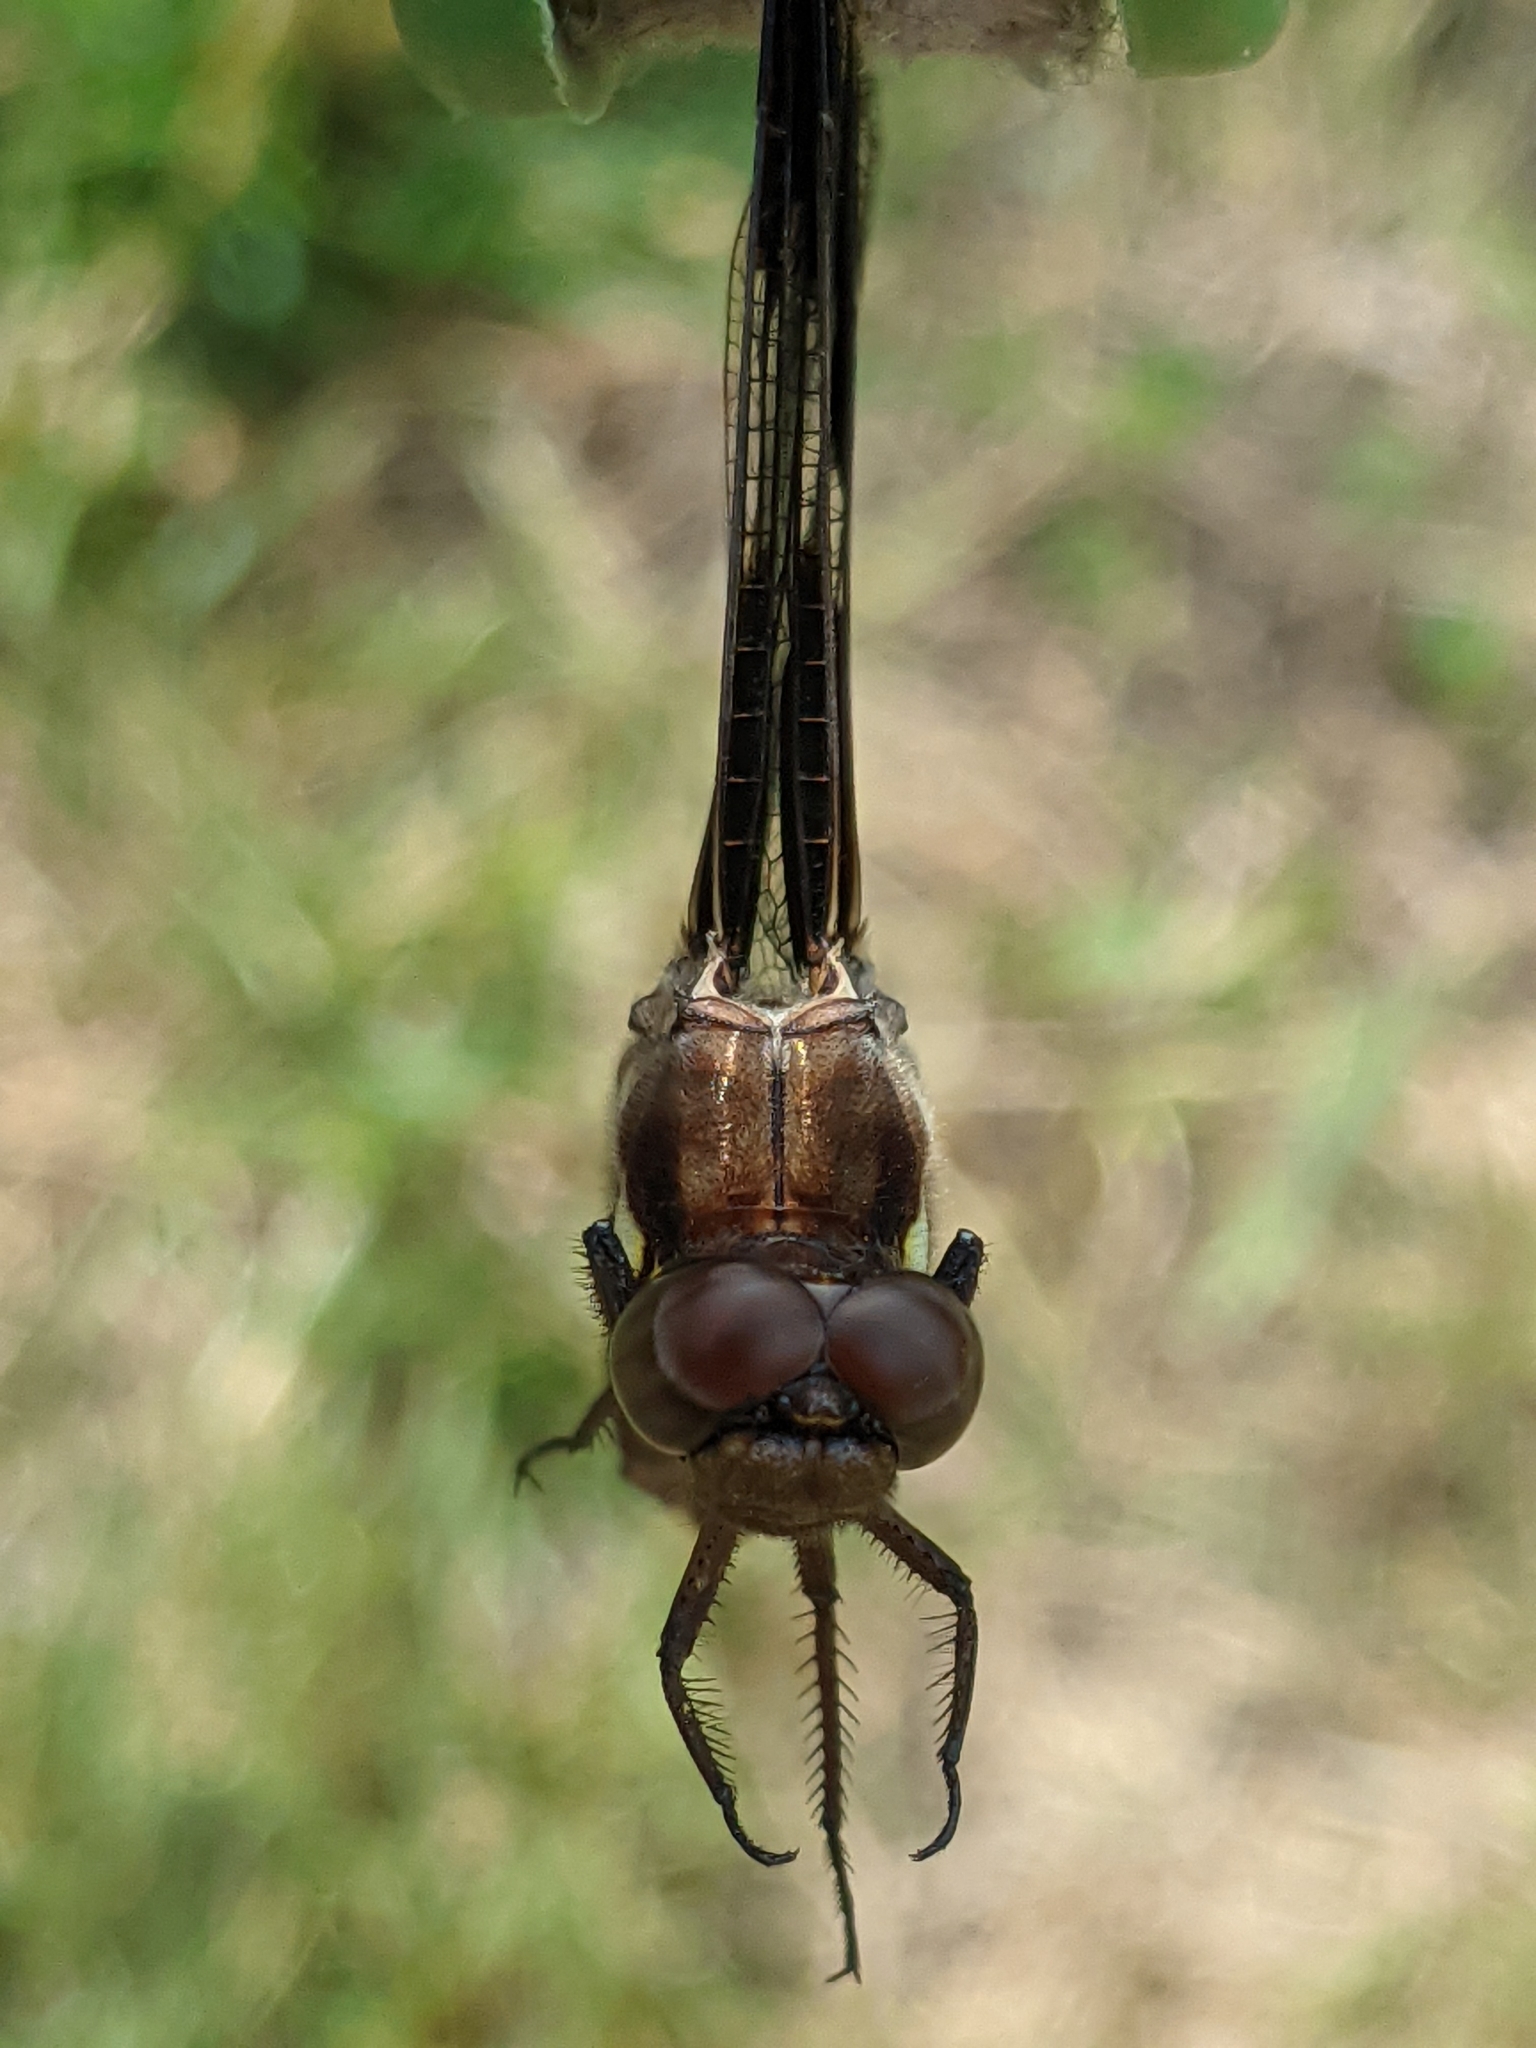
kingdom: Animalia
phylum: Arthropoda
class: Insecta
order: Odonata
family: Libellulidae
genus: Plathemis
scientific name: Plathemis lydia
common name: Common whitetail
